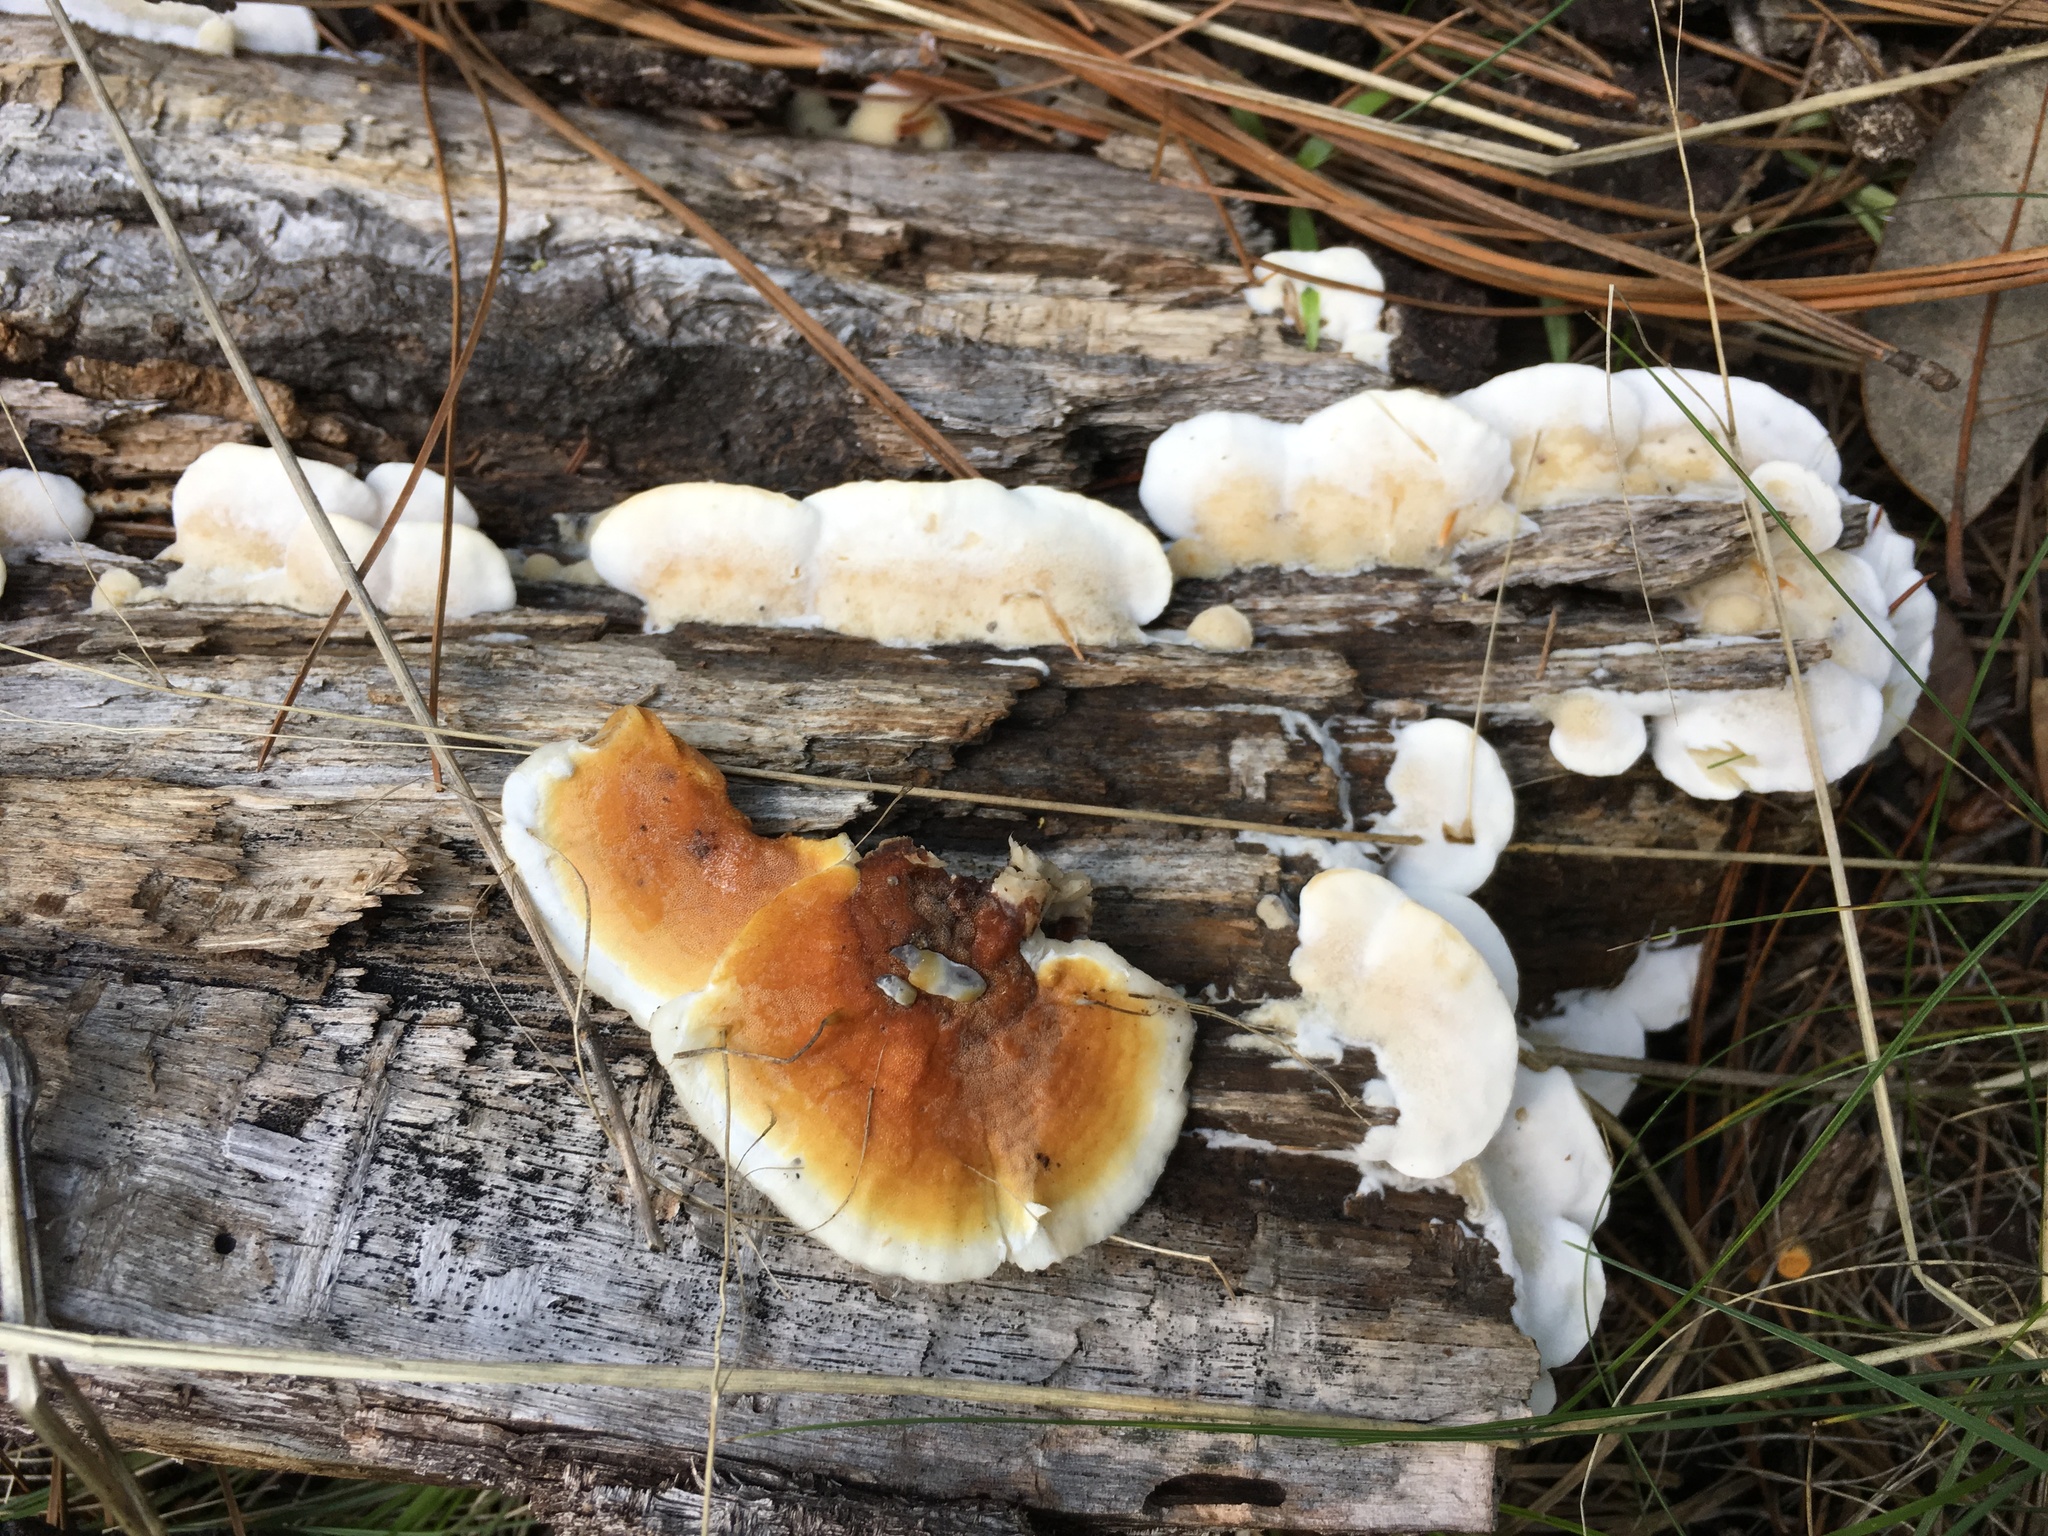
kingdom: Fungi
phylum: Basidiomycota
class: Agaricomycetes
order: Polyporales
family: Irpicaceae
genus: Vitreoporus
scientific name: Vitreoporus dichrous
